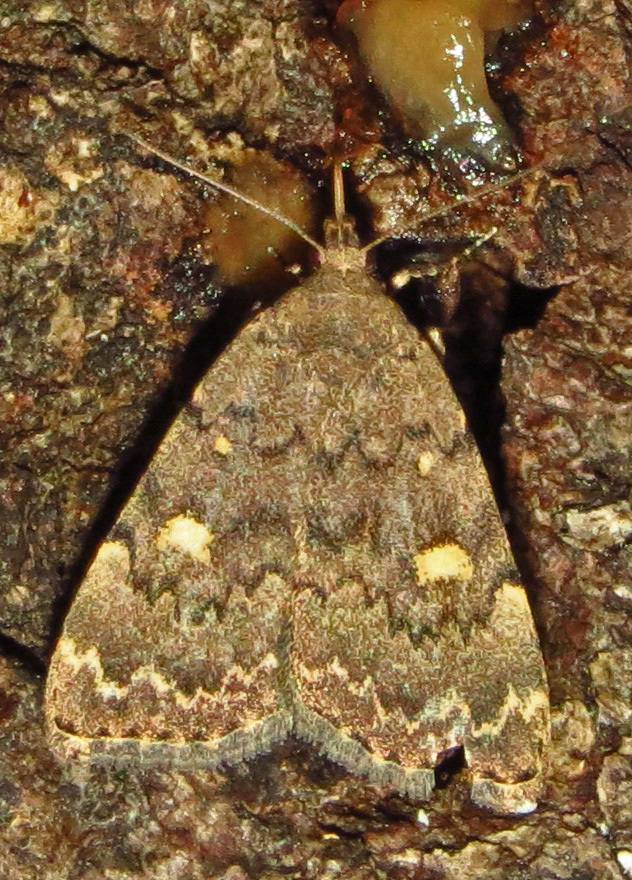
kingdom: Animalia
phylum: Arthropoda
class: Insecta
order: Lepidoptera
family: Erebidae
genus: Idia
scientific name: Idia aemula
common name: Common idia moth
